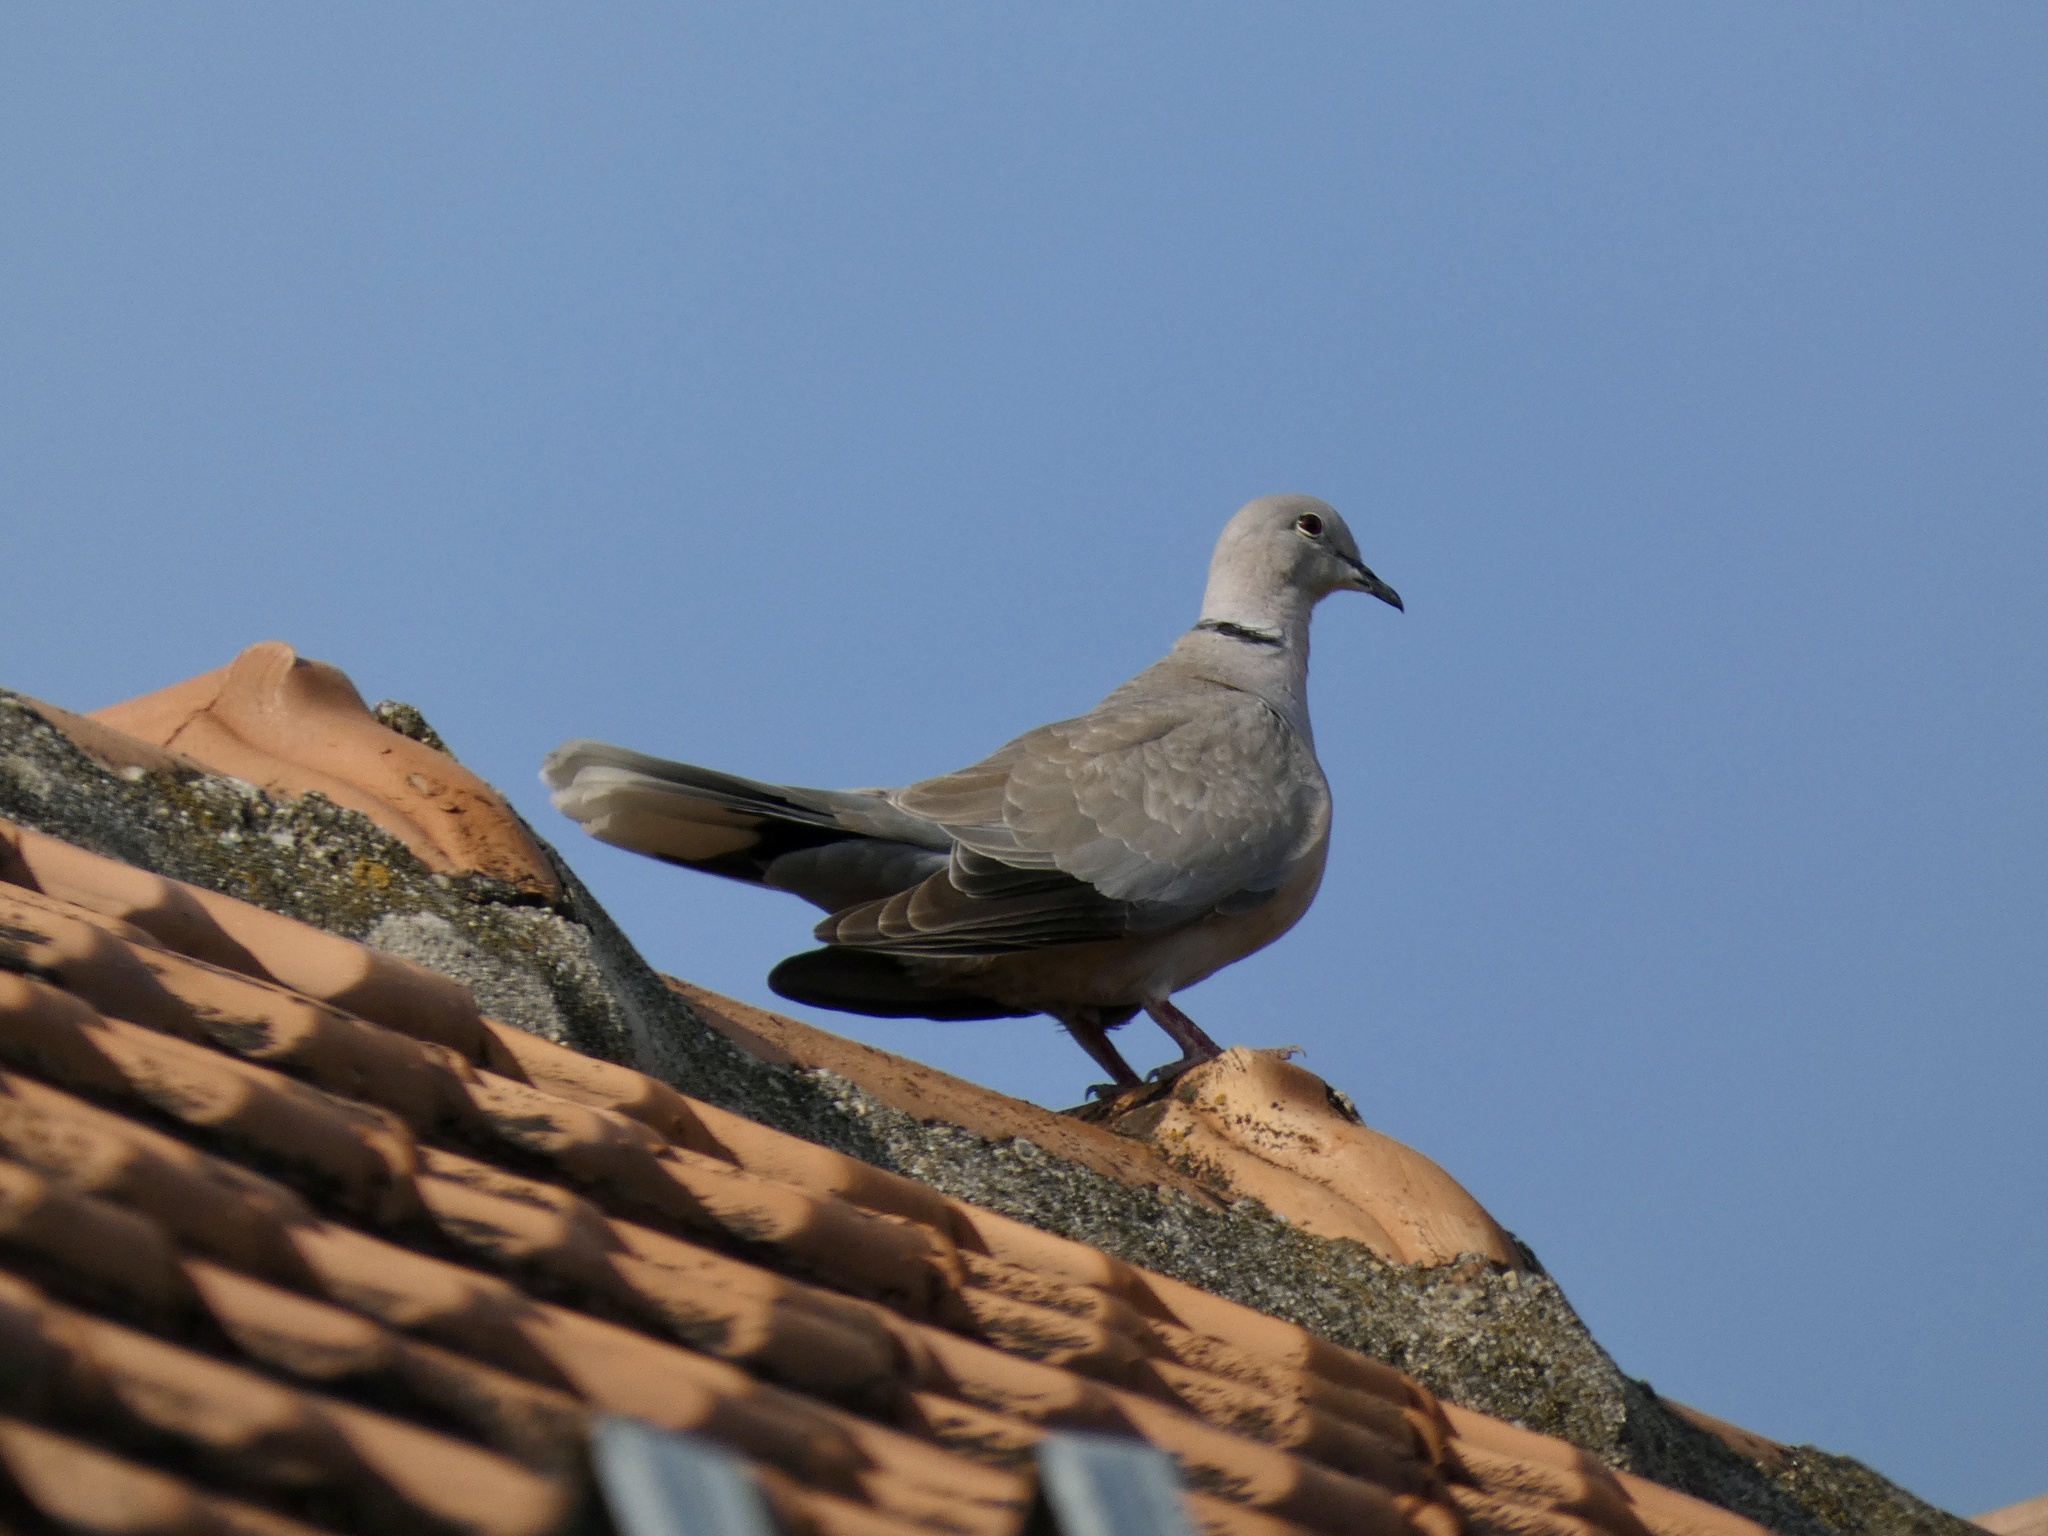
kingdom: Animalia
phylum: Chordata
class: Aves
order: Columbiformes
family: Columbidae
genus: Streptopelia
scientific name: Streptopelia decaocto
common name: Eurasian collared dove
